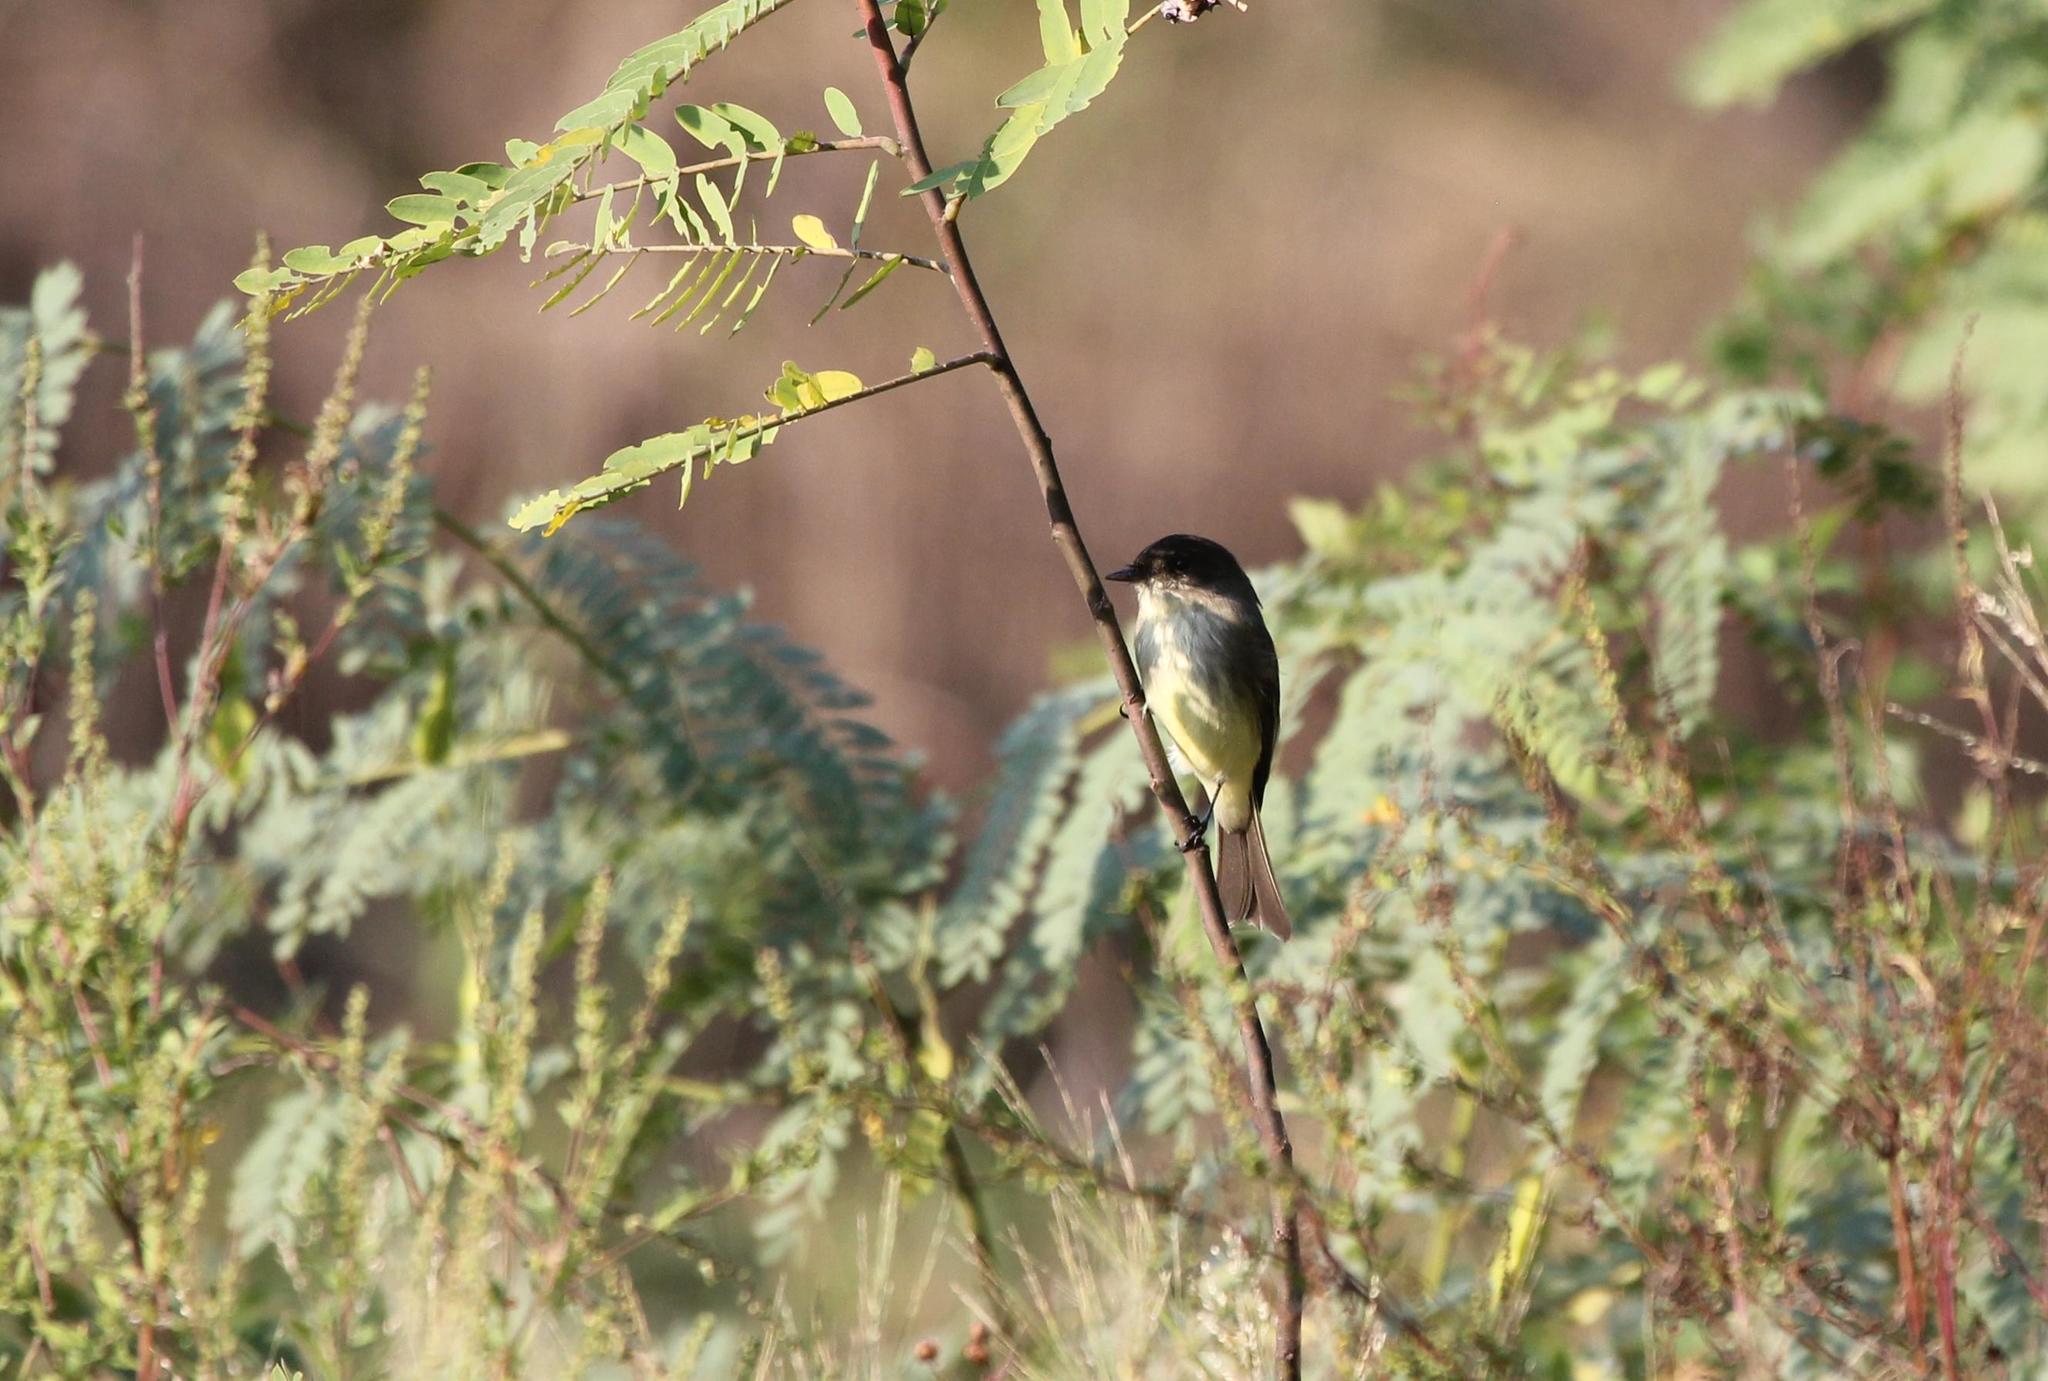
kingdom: Animalia
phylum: Chordata
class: Aves
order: Passeriformes
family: Tyrannidae
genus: Sayornis
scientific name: Sayornis phoebe
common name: Eastern phoebe
